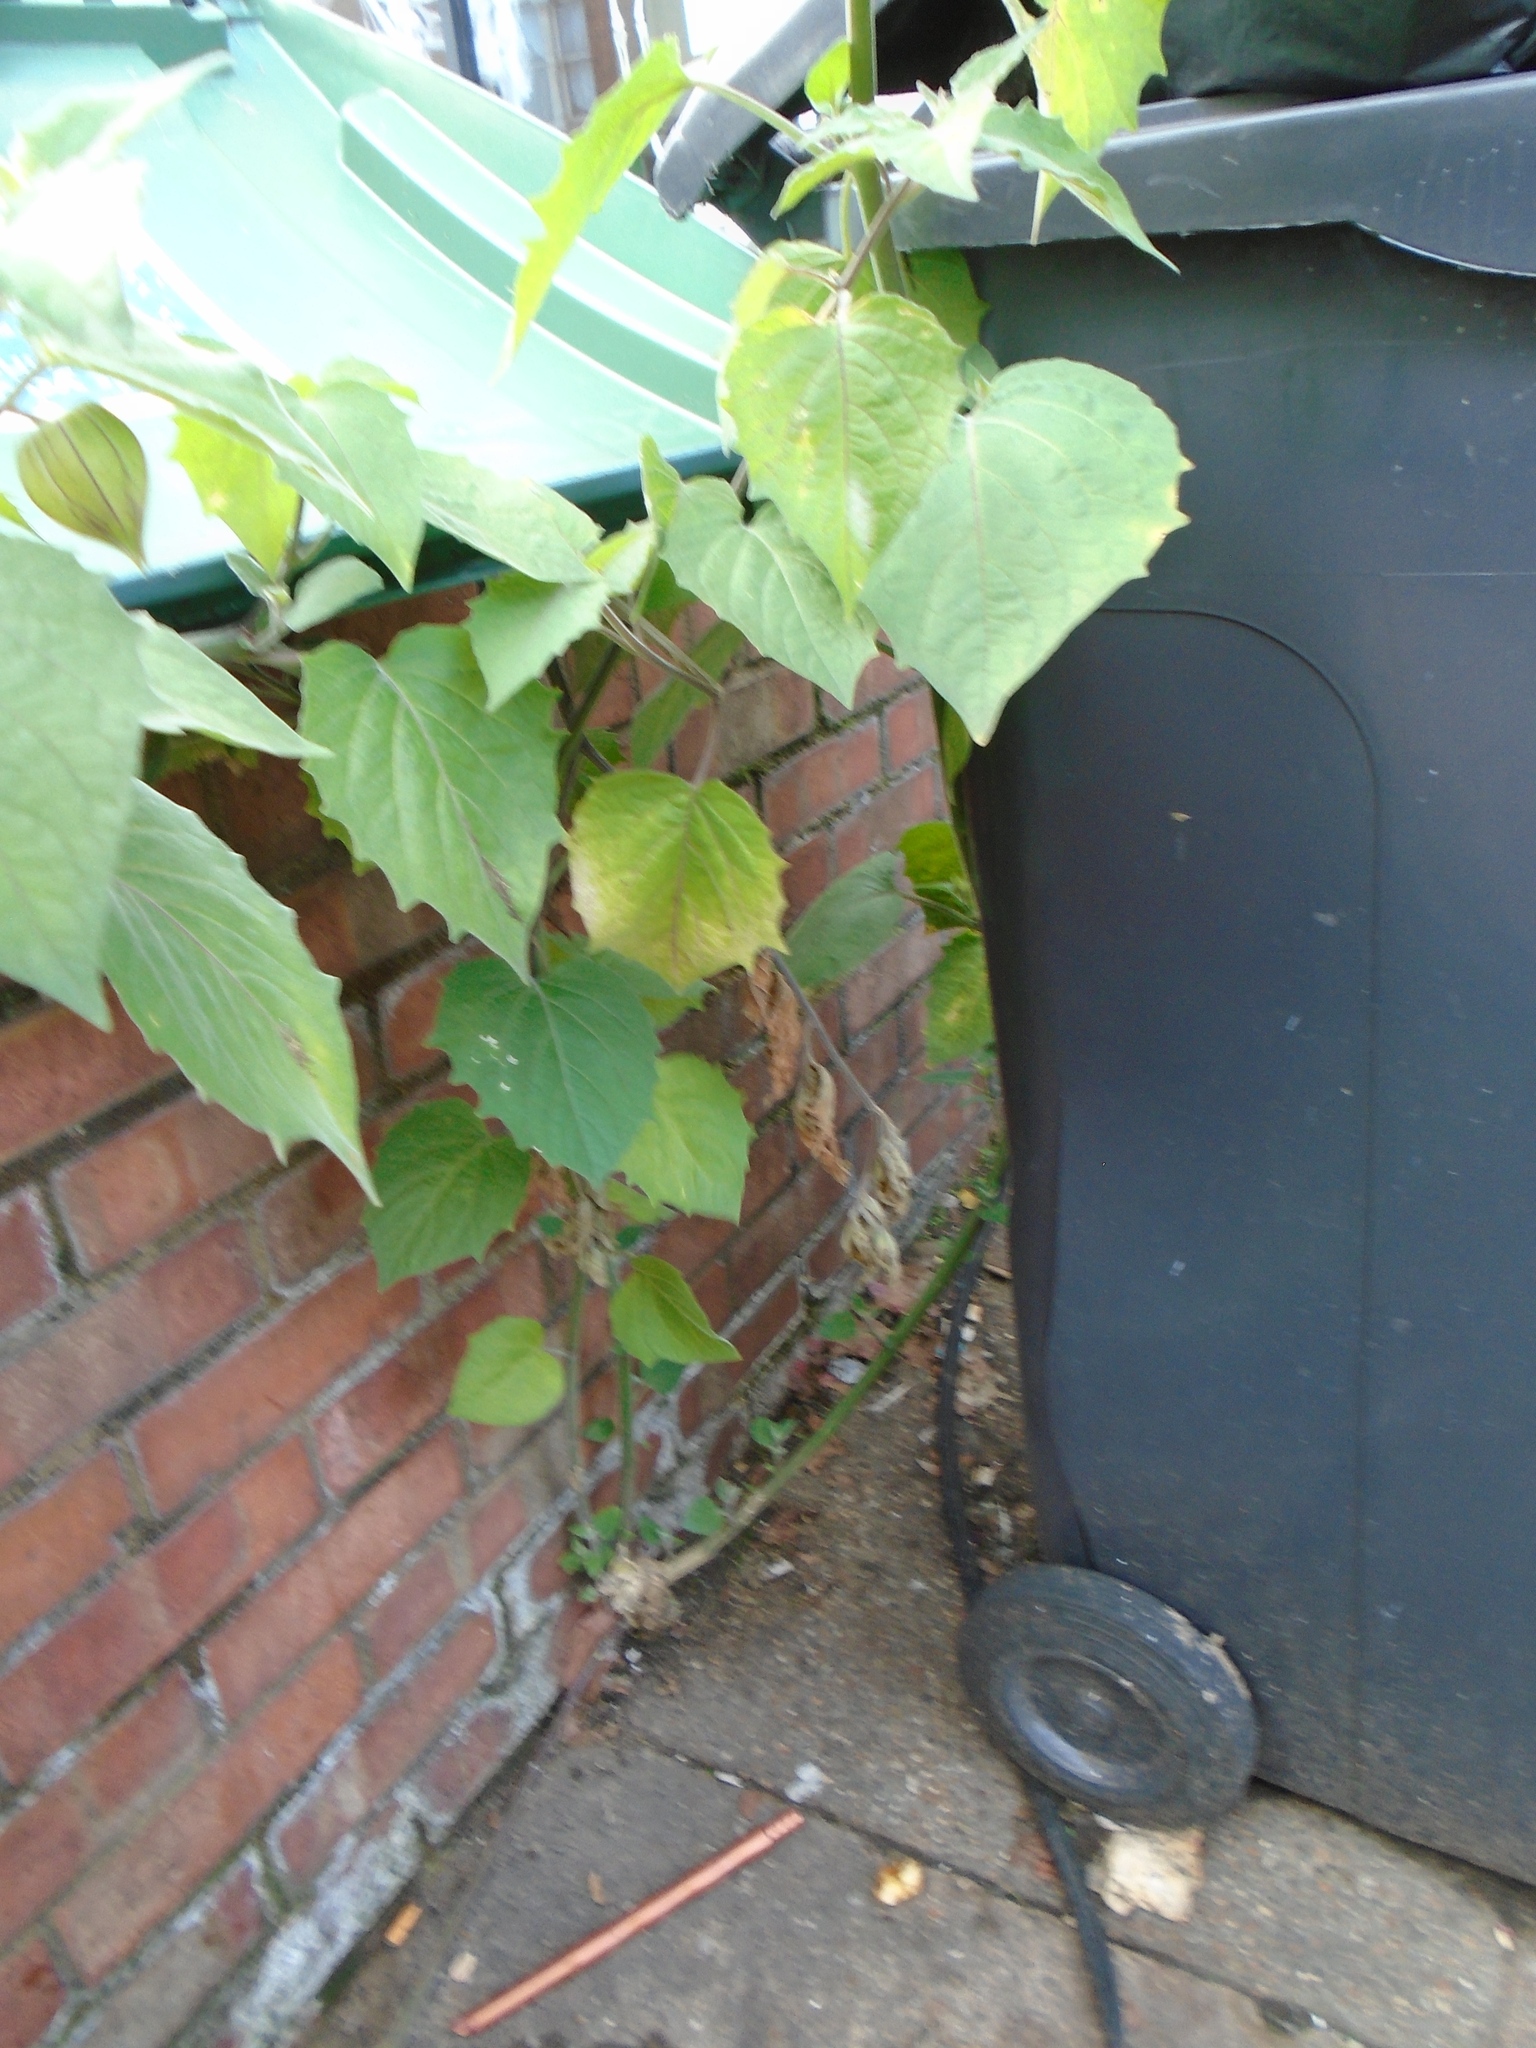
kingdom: Plantae
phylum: Tracheophyta
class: Magnoliopsida
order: Solanales
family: Solanaceae
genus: Physalis
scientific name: Physalis peruviana
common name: Cape-gooseberry
